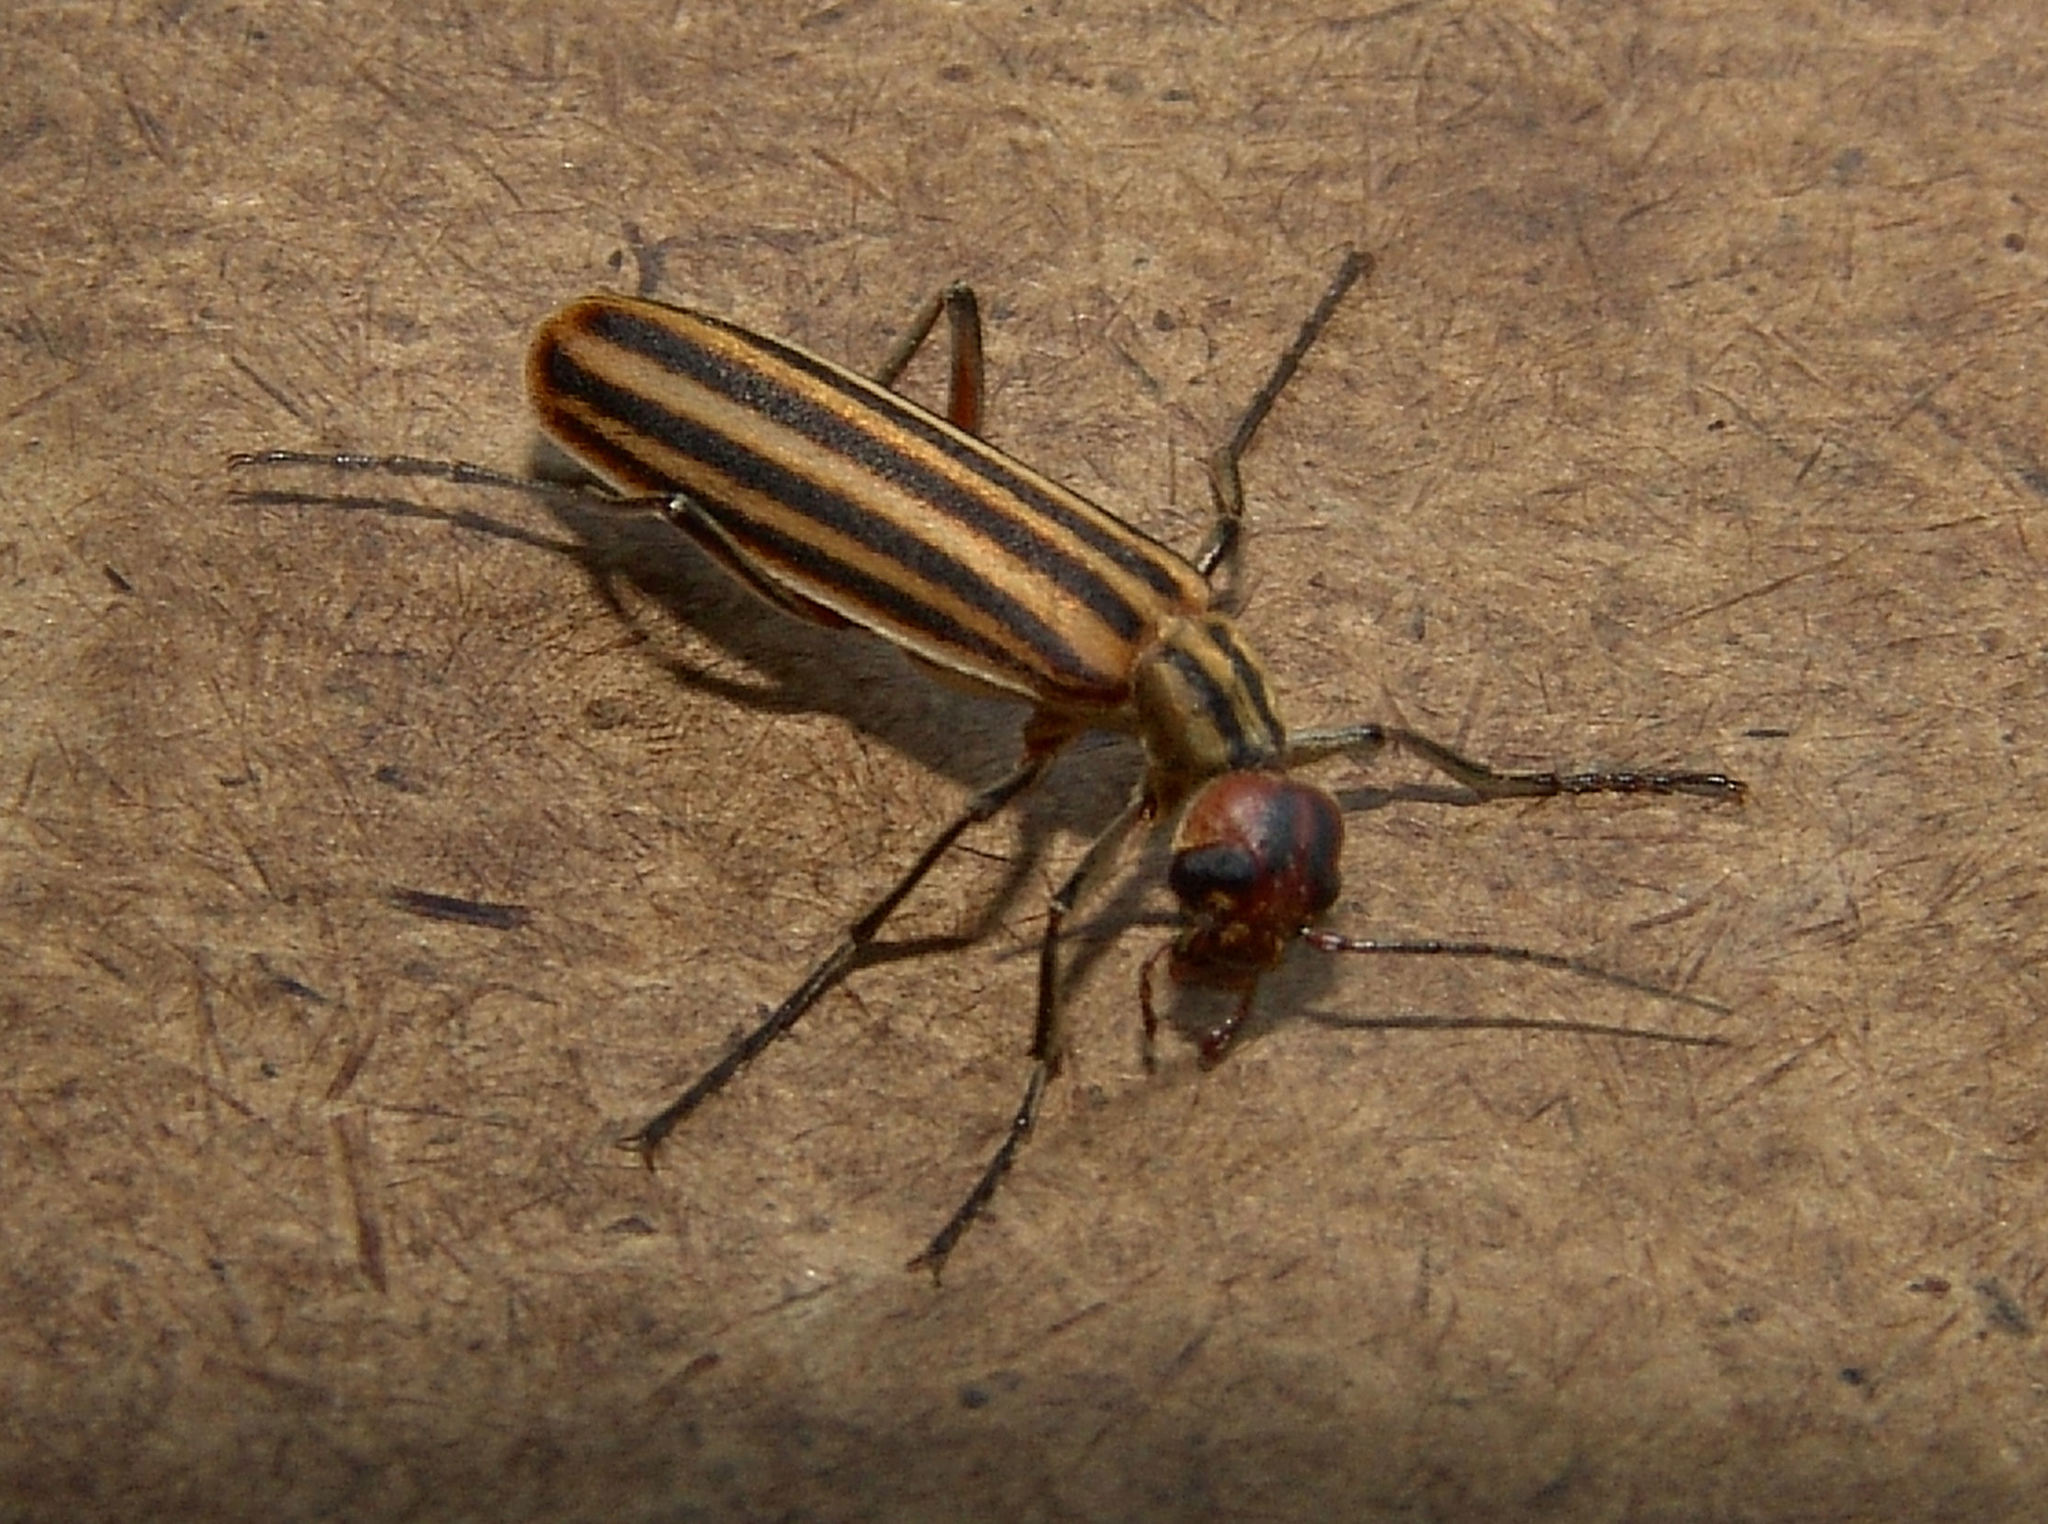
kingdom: Animalia
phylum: Arthropoda
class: Insecta
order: Coleoptera
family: Meloidae
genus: Epicauta
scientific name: Epicauta vittata
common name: Old-fashioned potato beetle
